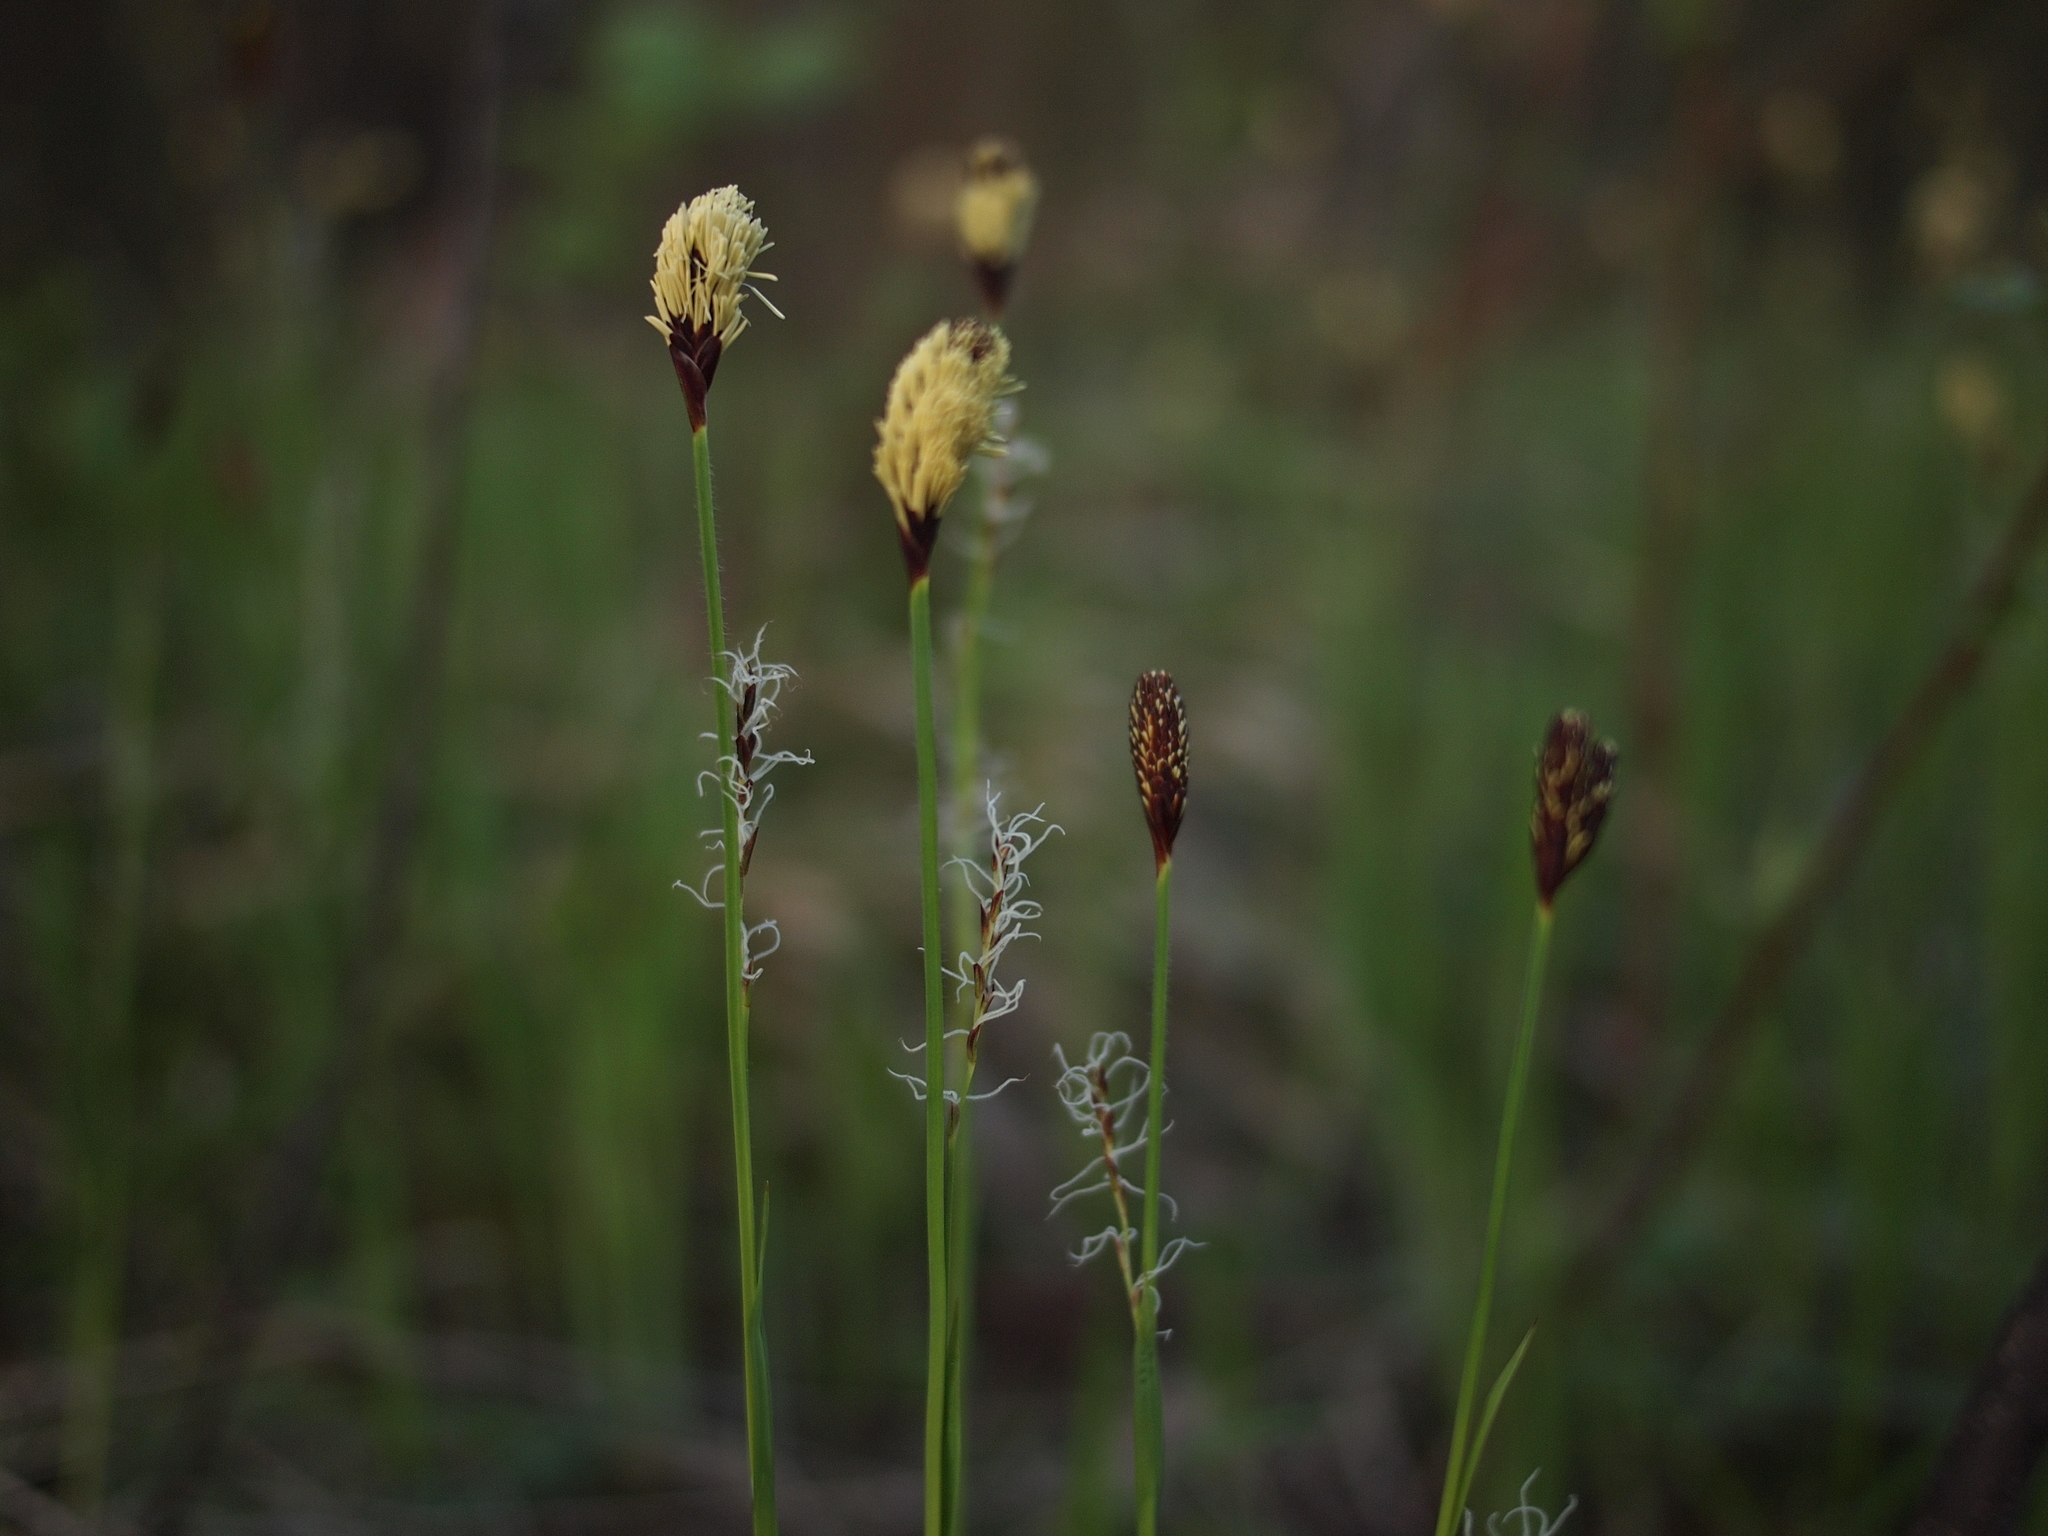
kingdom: Plantae
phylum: Tracheophyta
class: Liliopsida
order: Poales
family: Cyperaceae
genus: Carex
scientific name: Carex pilosa
